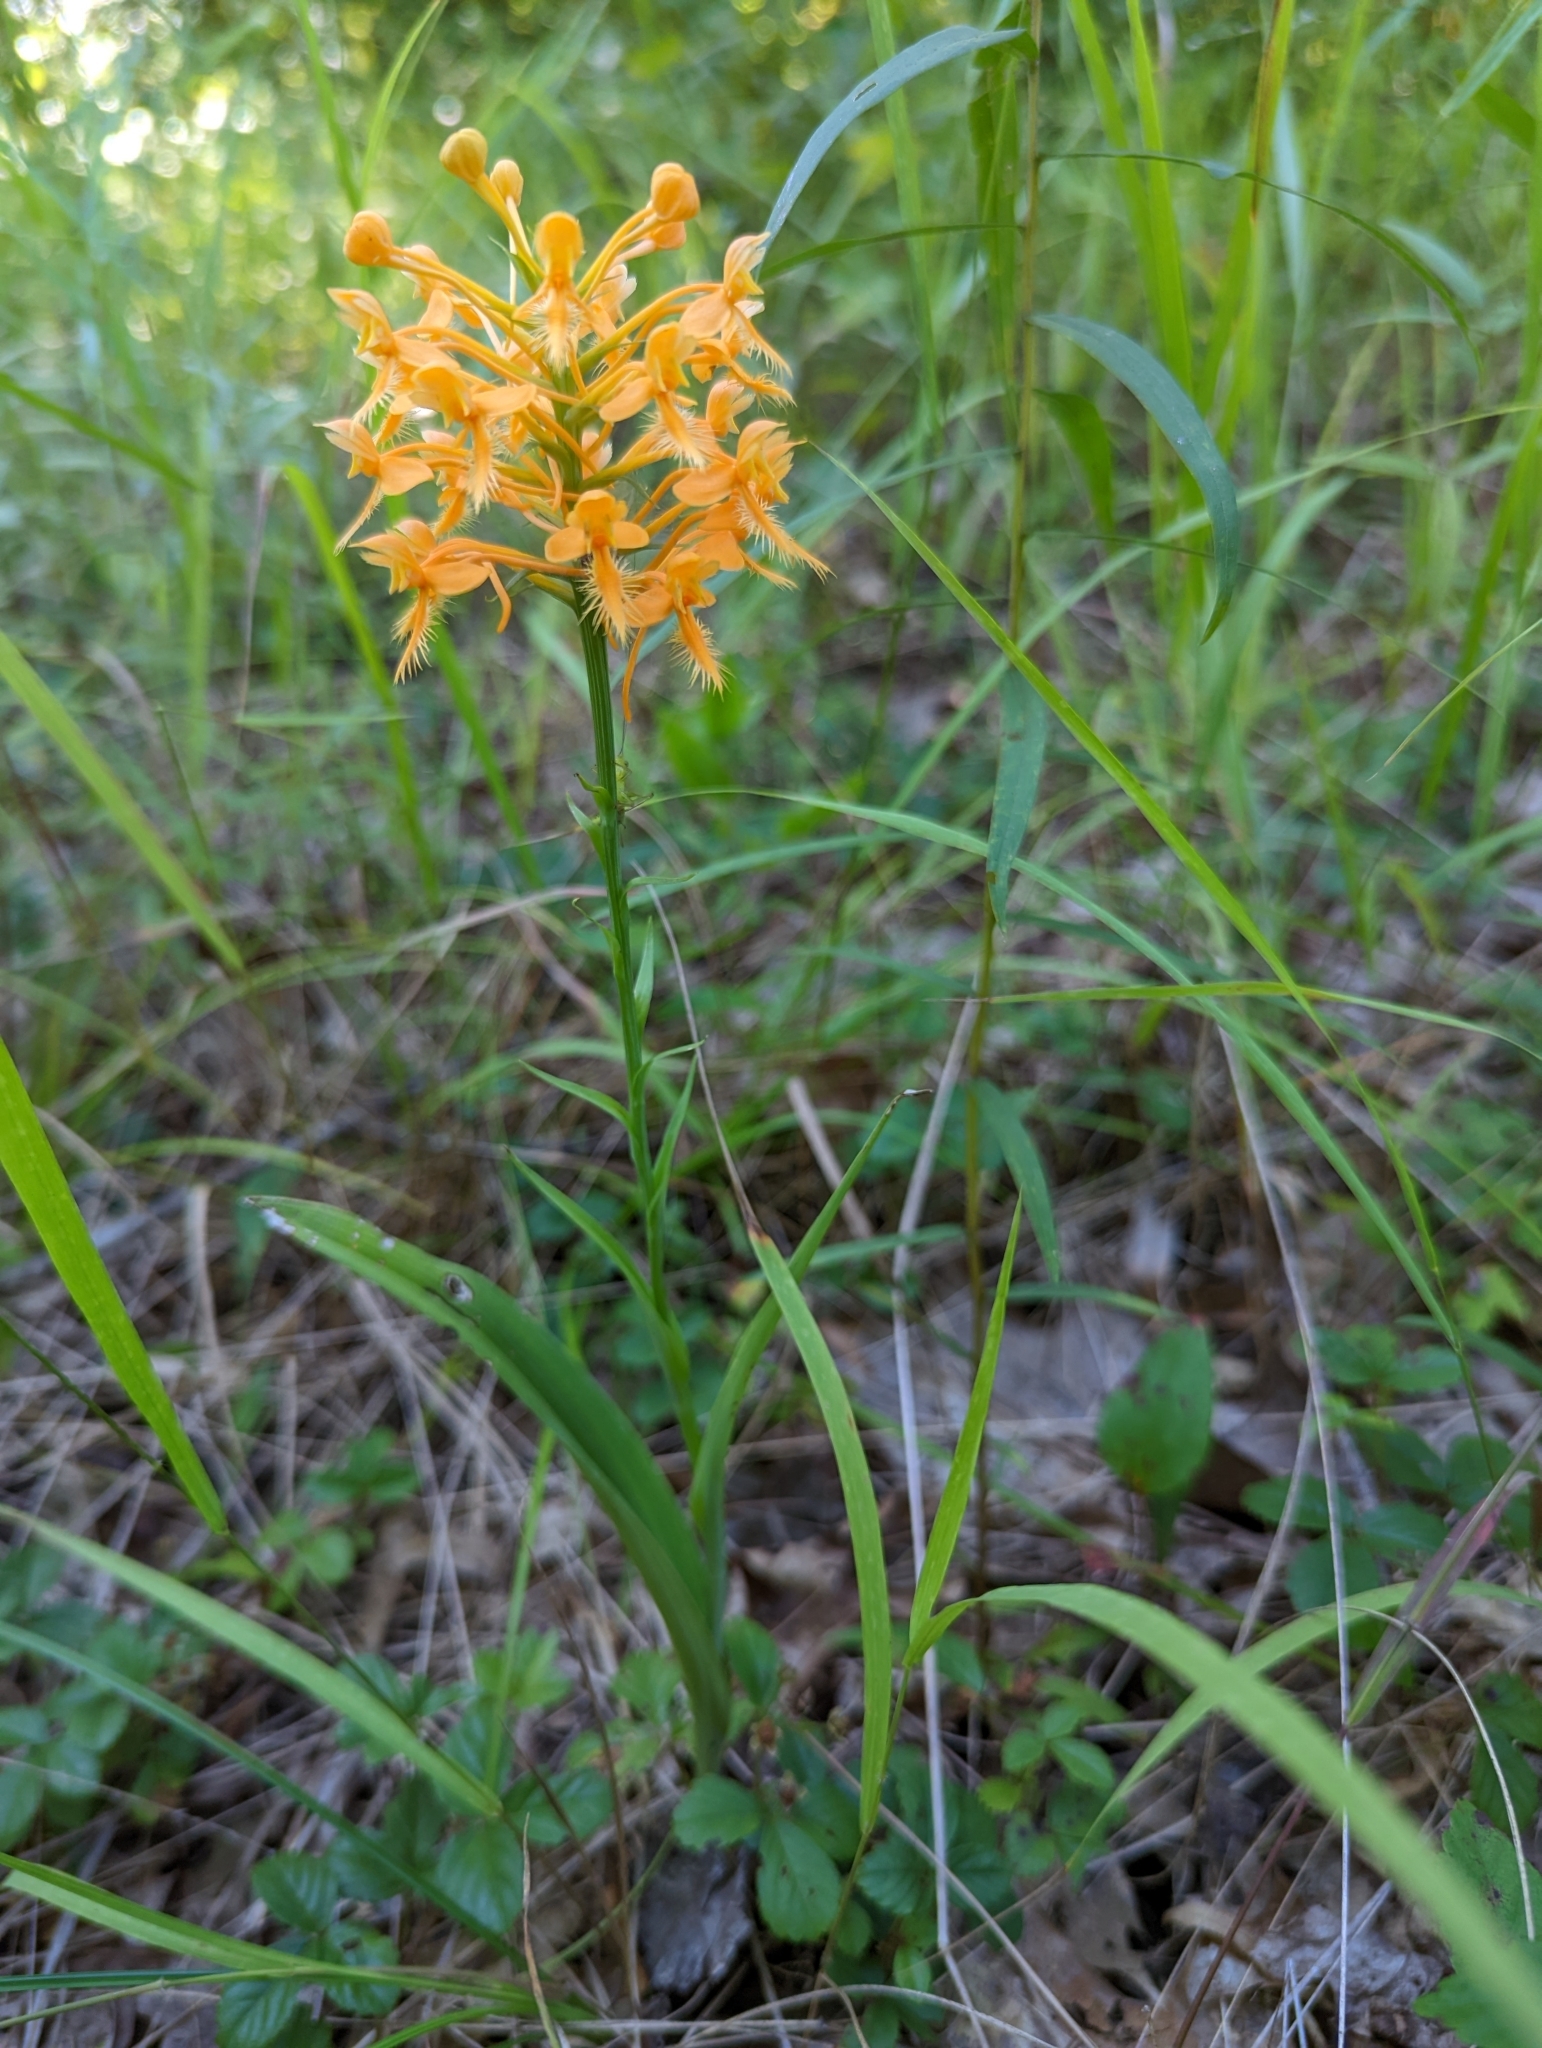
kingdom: Plantae
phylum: Tracheophyta
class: Liliopsida
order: Asparagales
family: Orchidaceae
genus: Platanthera
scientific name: Platanthera ciliaris
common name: Yellow fringed orchid
